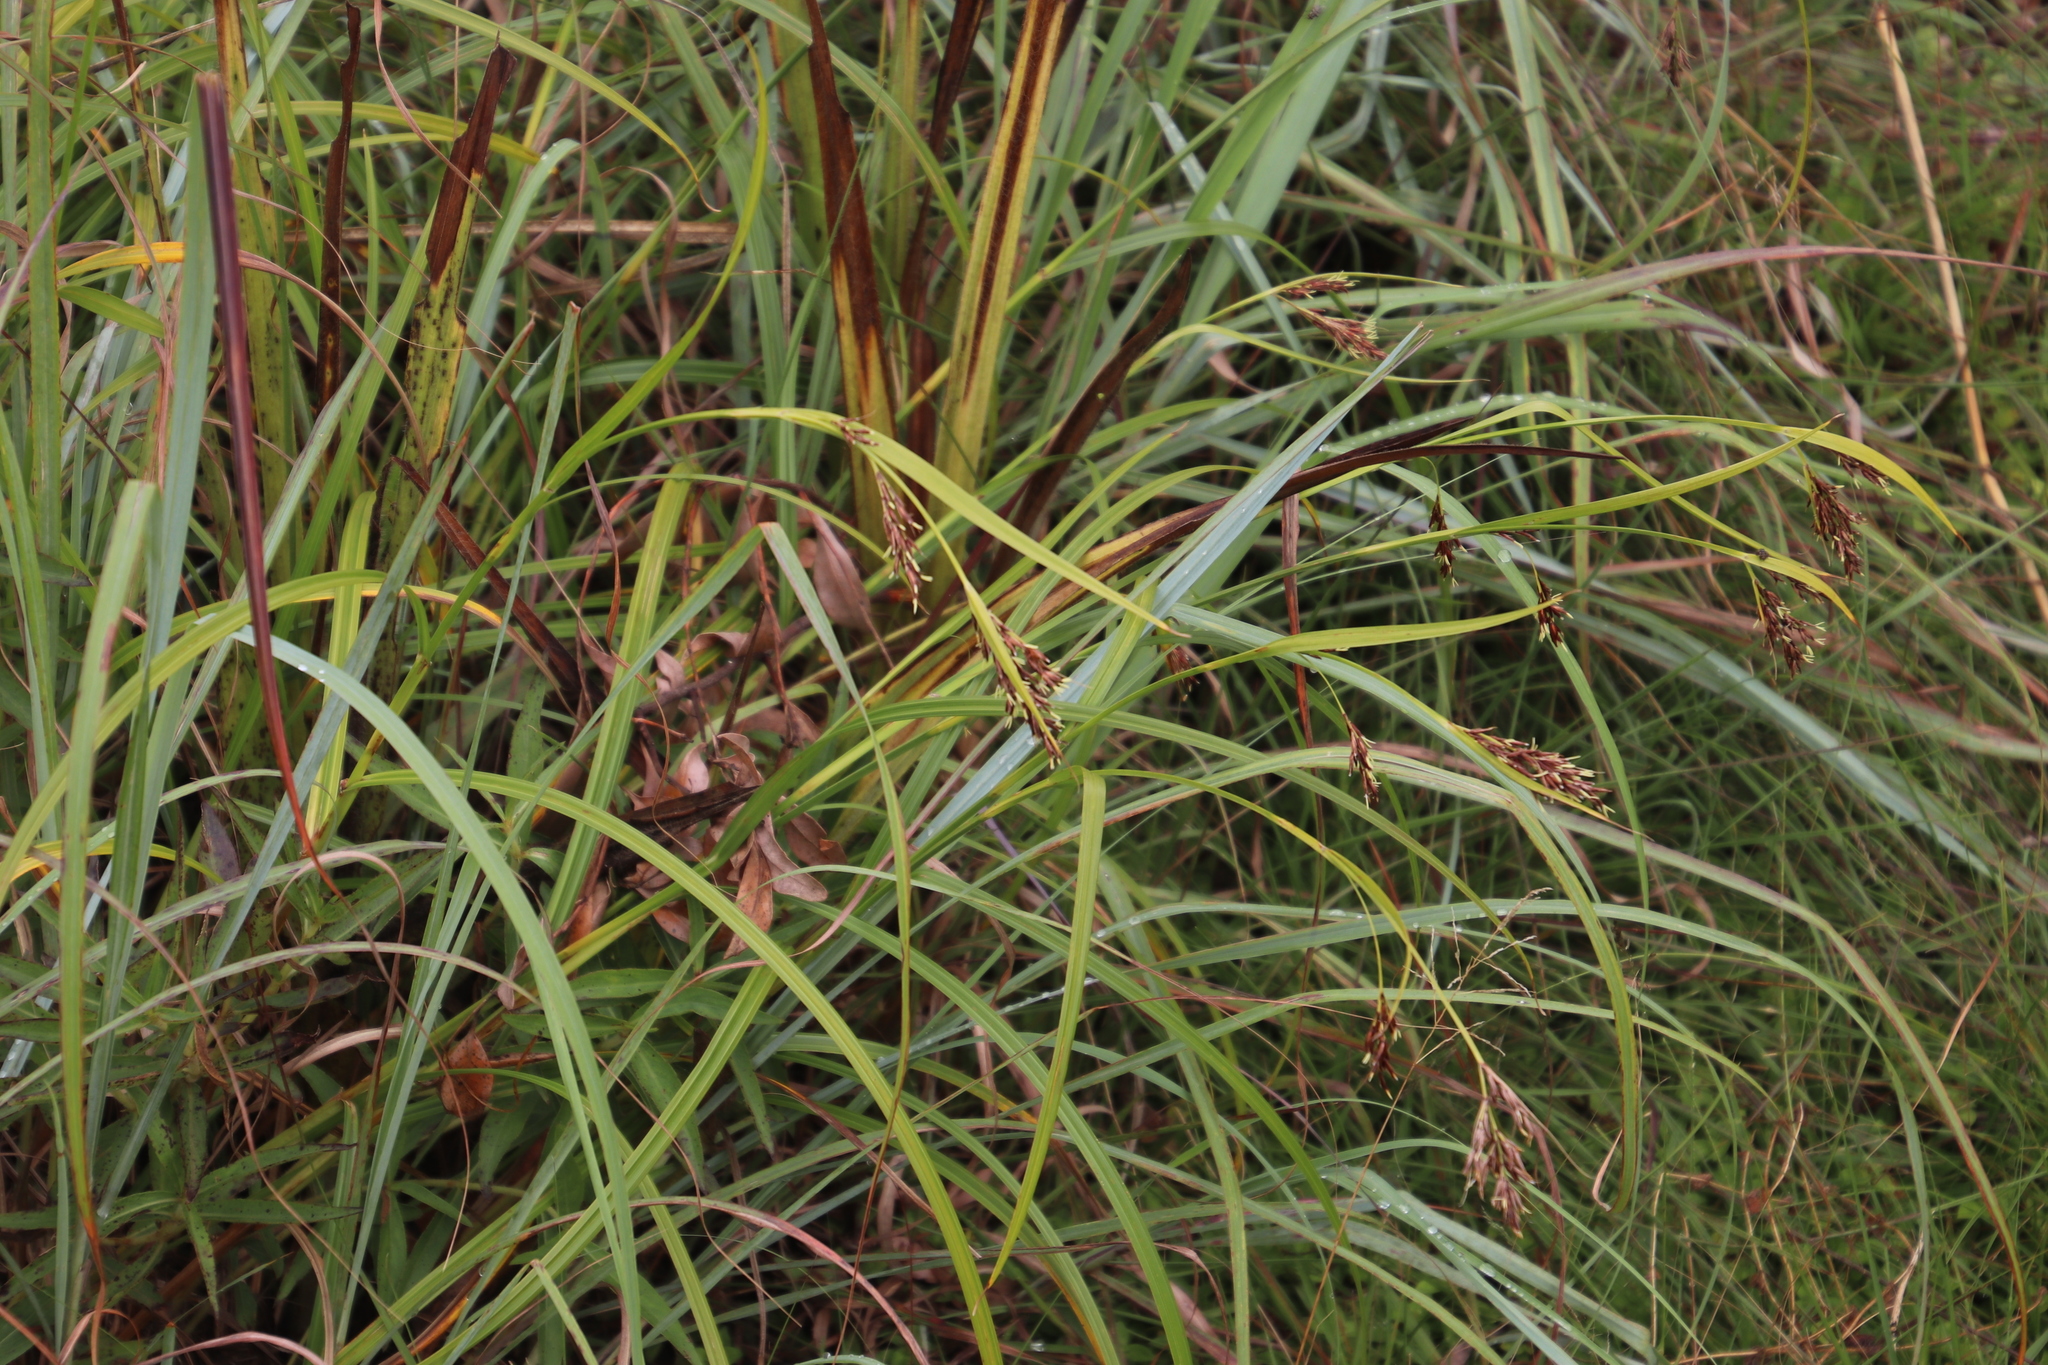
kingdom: Plantae
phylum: Tracheophyta
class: Liliopsida
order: Poales
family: Cyperaceae
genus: Scleria
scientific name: Scleria transvaalensis
